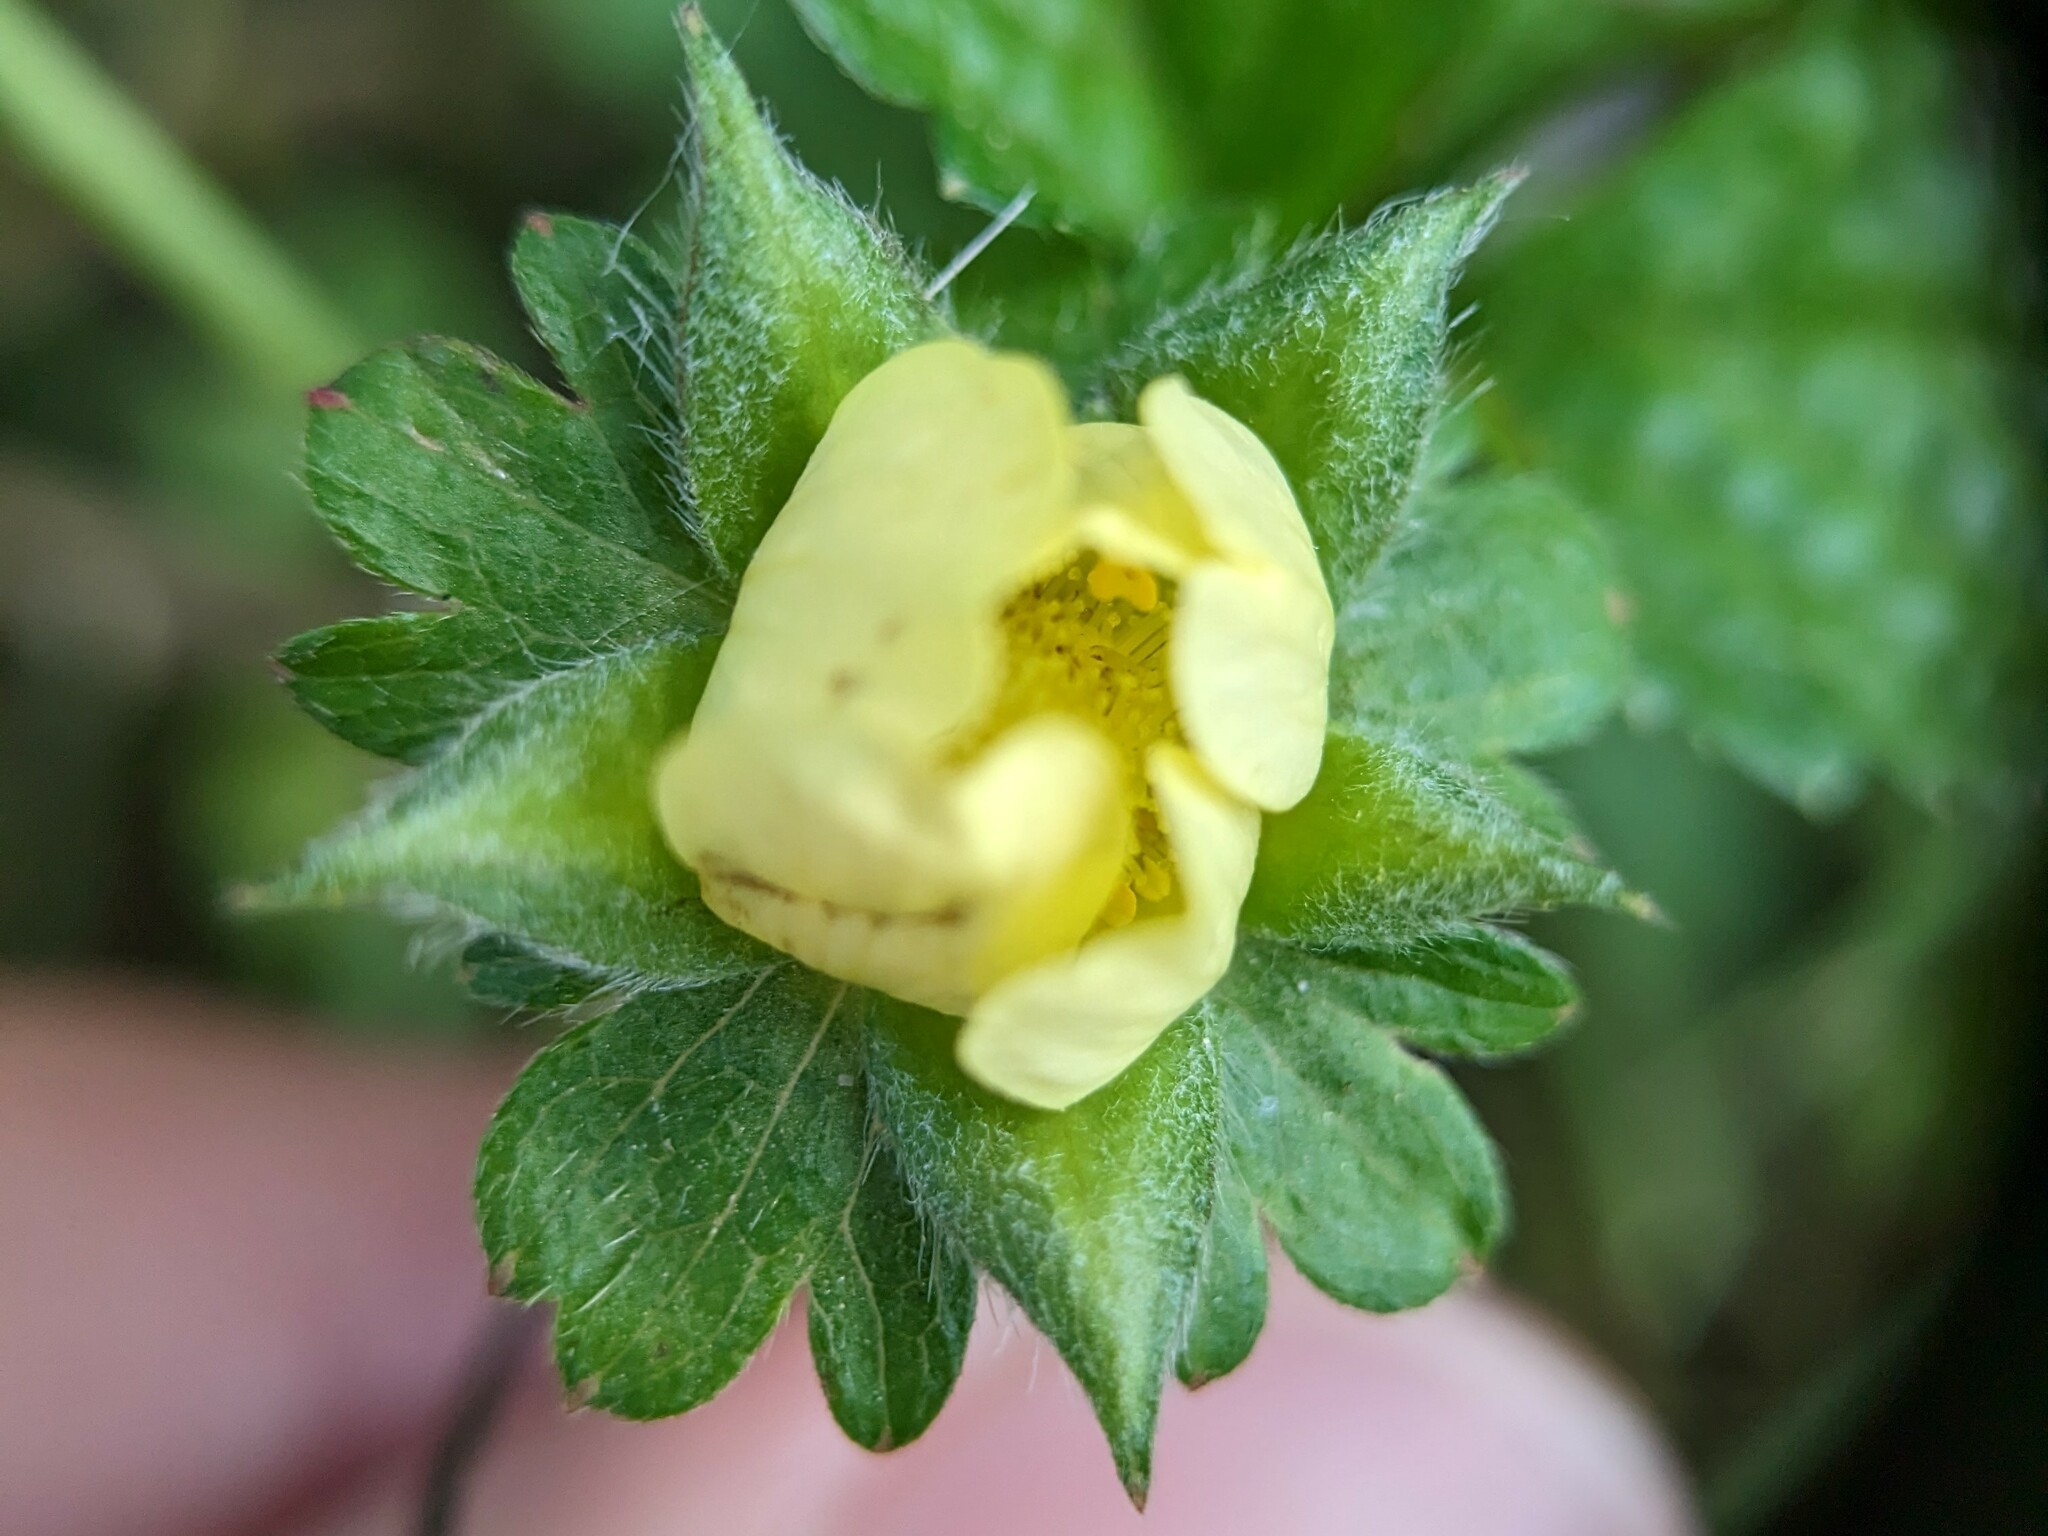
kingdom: Plantae
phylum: Tracheophyta
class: Magnoliopsida
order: Rosales
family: Rosaceae
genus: Potentilla
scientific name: Potentilla indica
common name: Yellow-flowered strawberry
